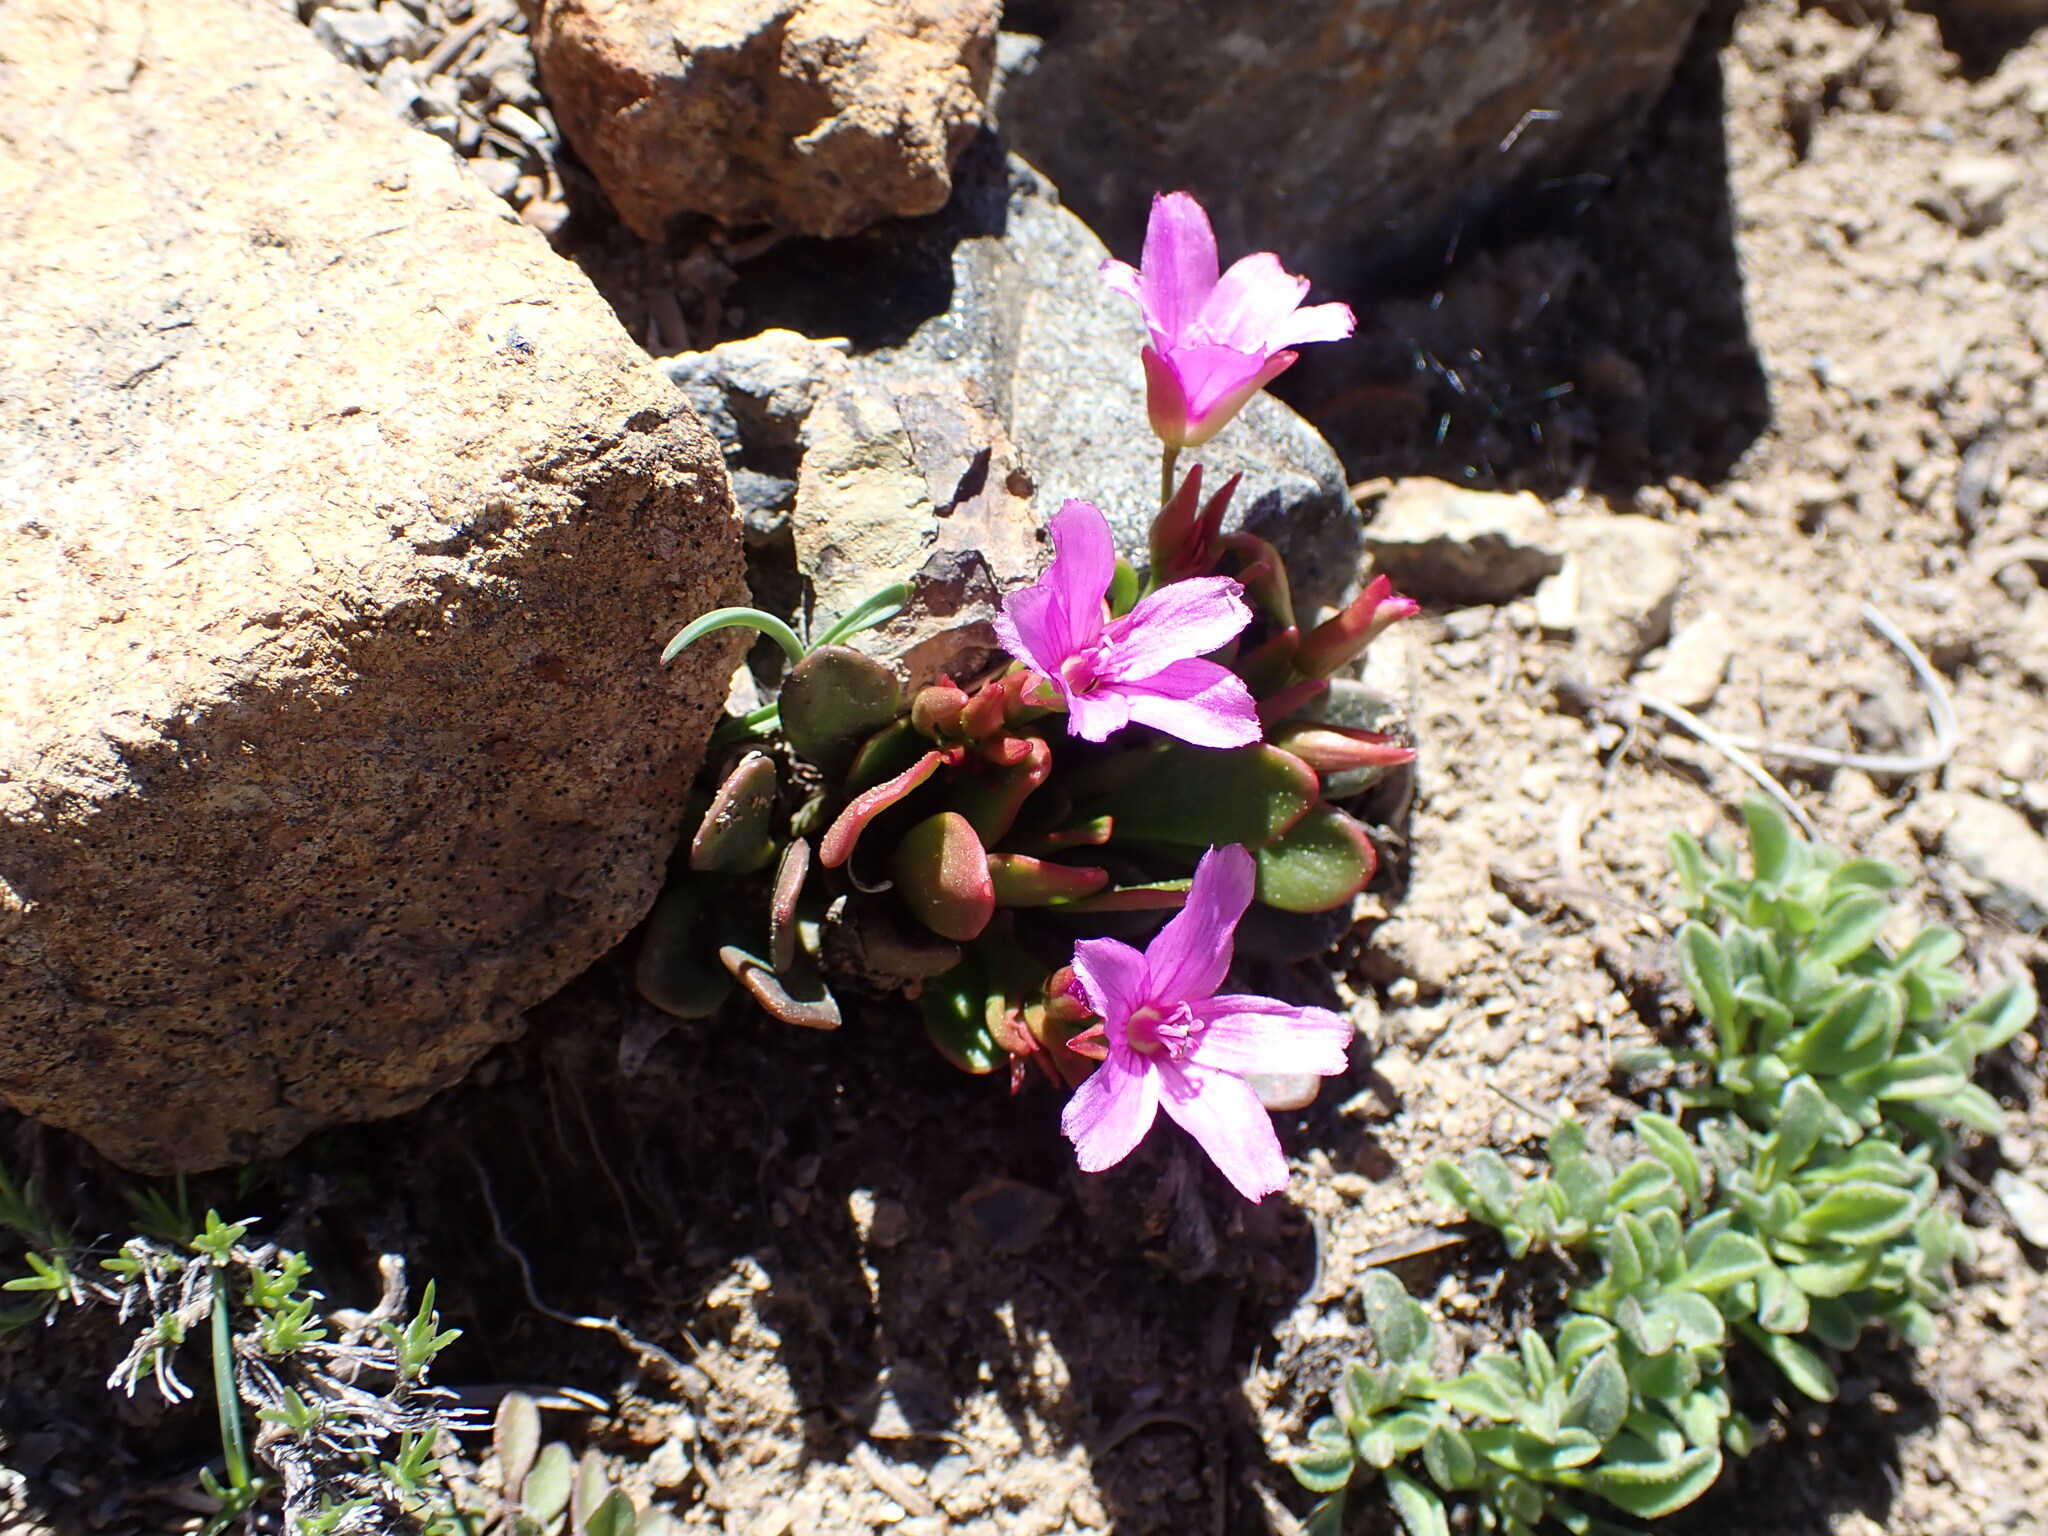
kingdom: Plantae
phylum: Tracheophyta
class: Magnoliopsida
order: Caryophyllales
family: Montiaceae
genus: Claytonia
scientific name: Claytonia megarhiza
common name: Alpine spring beauty
